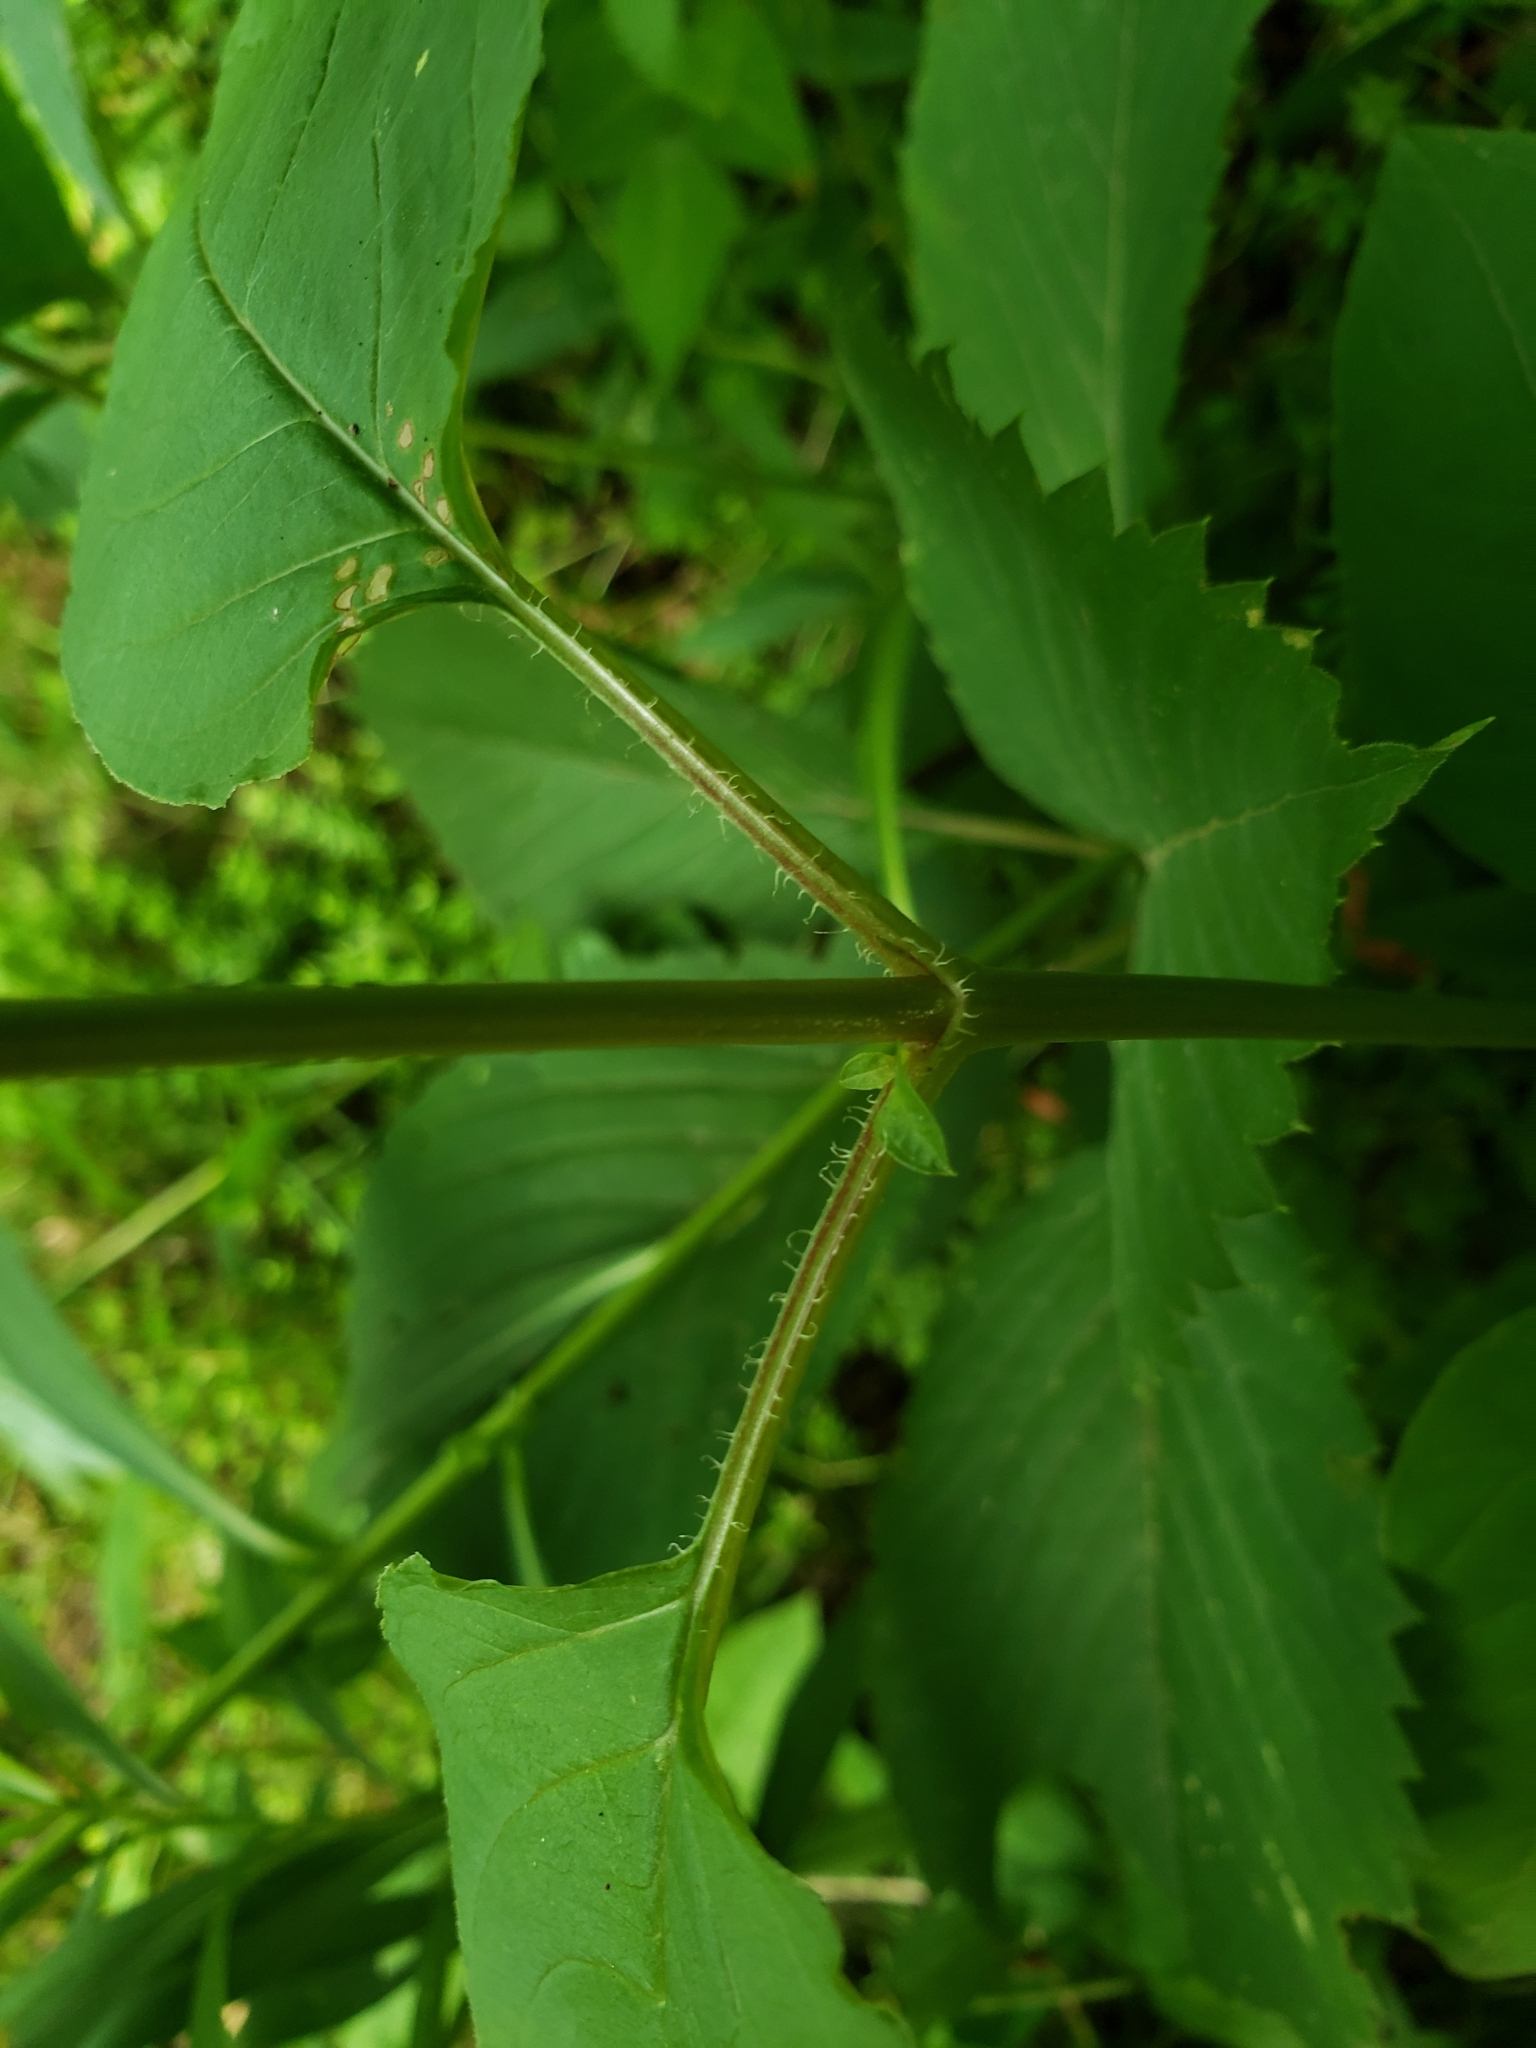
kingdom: Plantae
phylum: Tracheophyta
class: Magnoliopsida
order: Ericales
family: Primulaceae
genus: Lysimachia
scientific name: Lysimachia ciliata
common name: Fringed loosestrife
